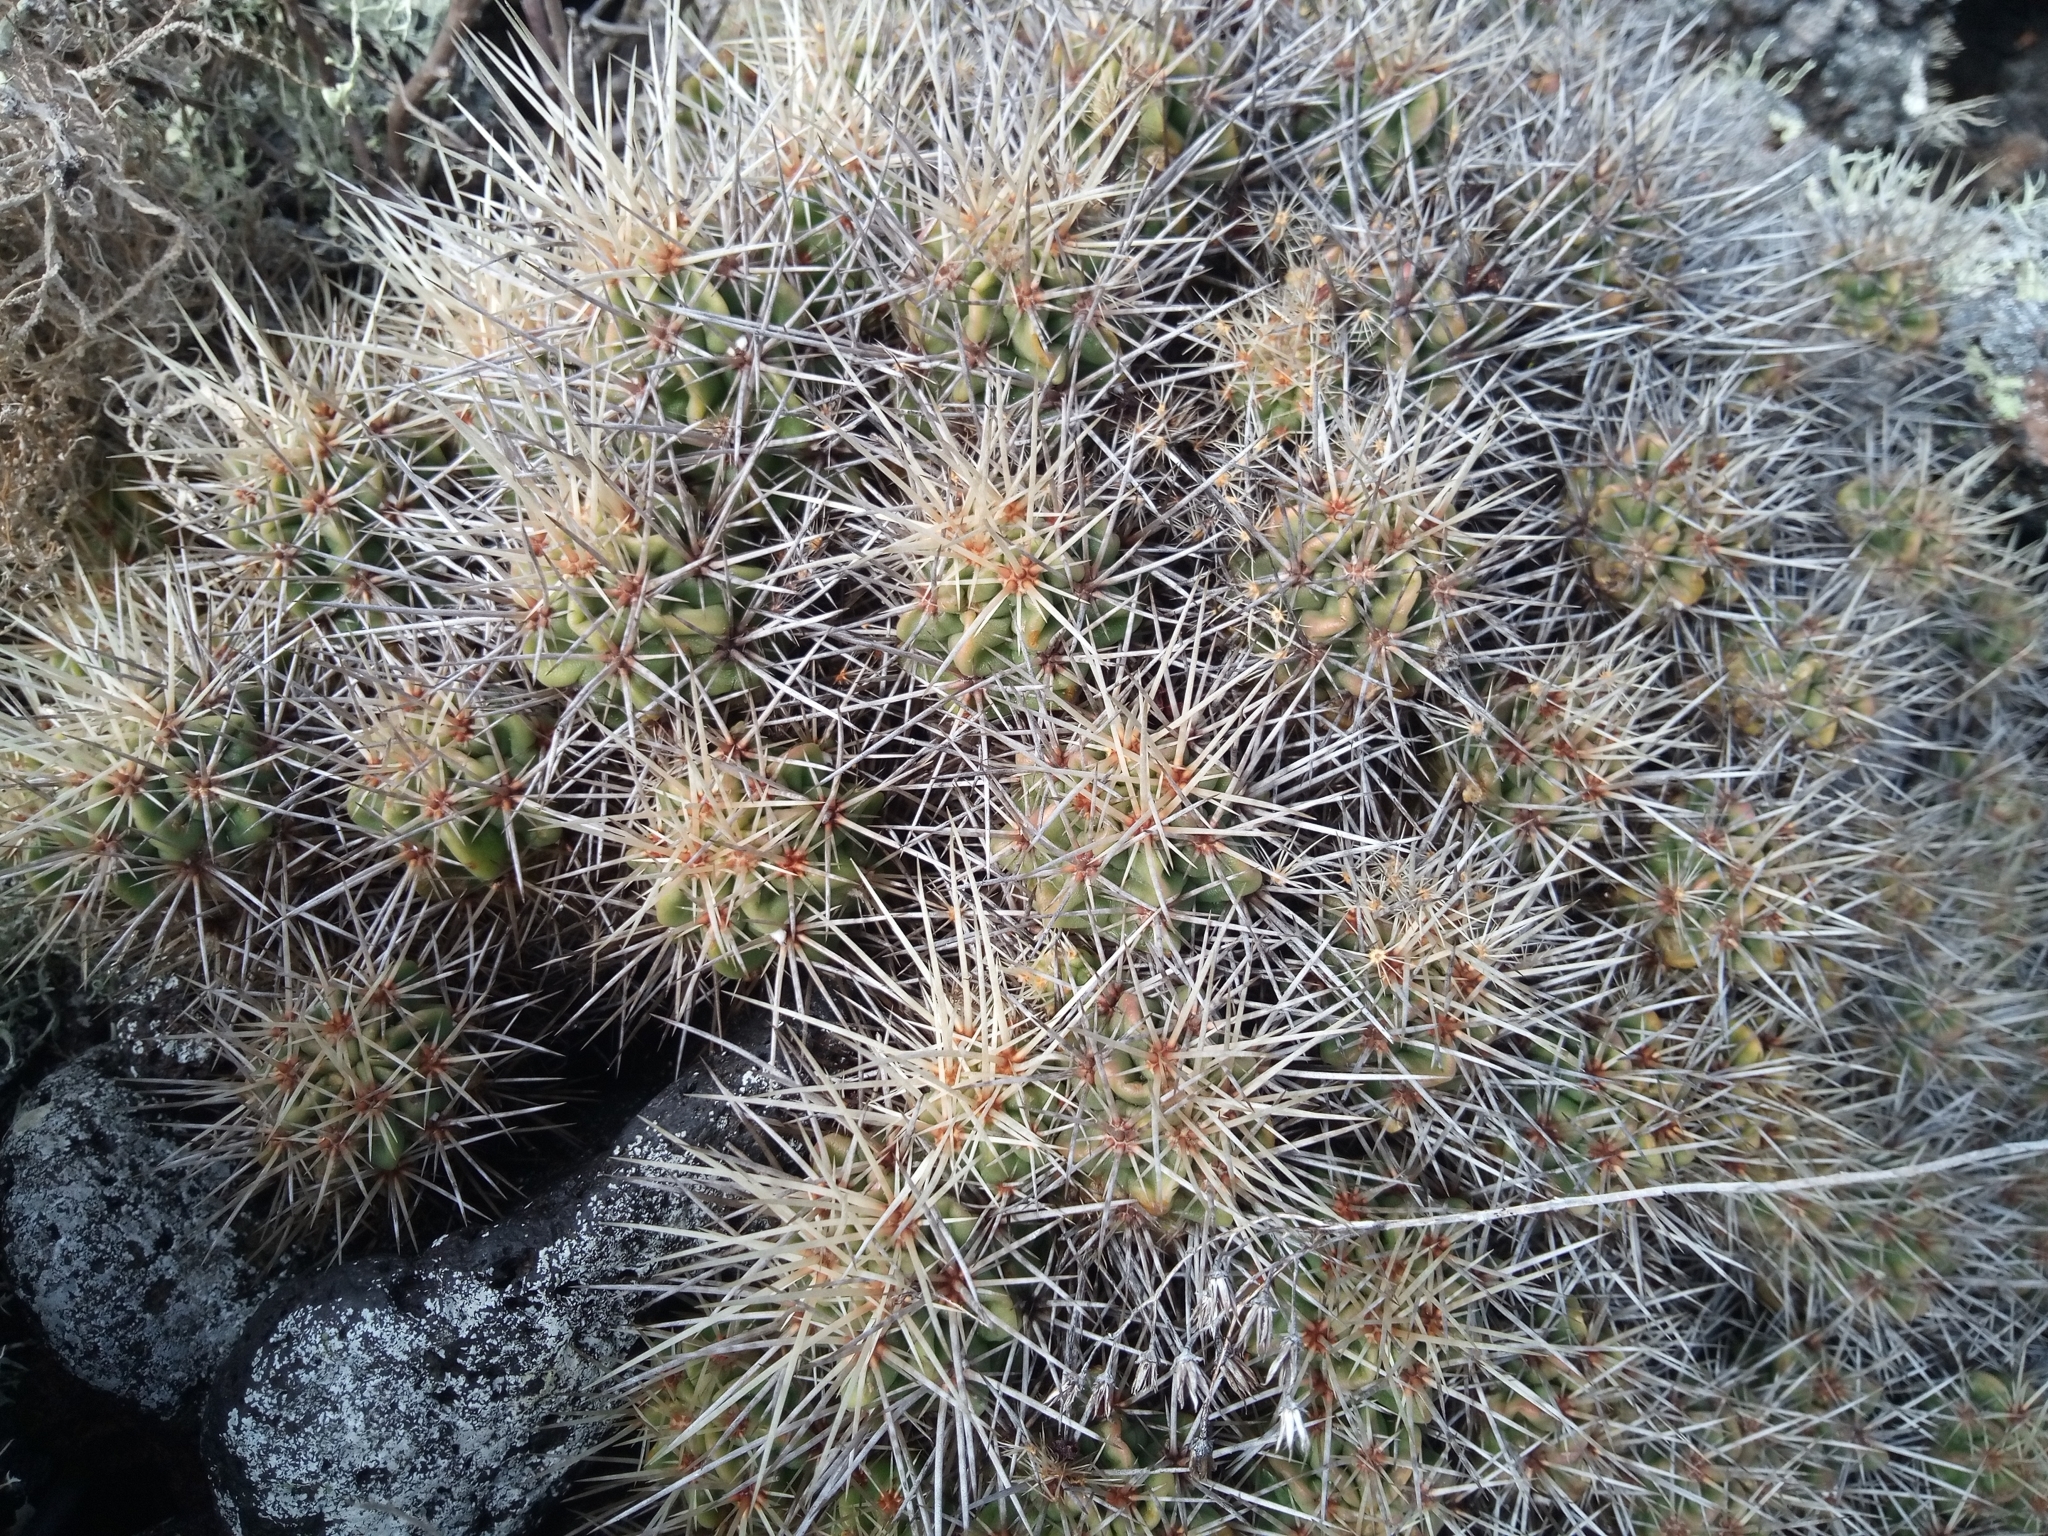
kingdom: Plantae
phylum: Tracheophyta
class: Magnoliopsida
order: Caryophyllales
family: Cactaceae
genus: Echinocereus
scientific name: Echinocereus maritimus
